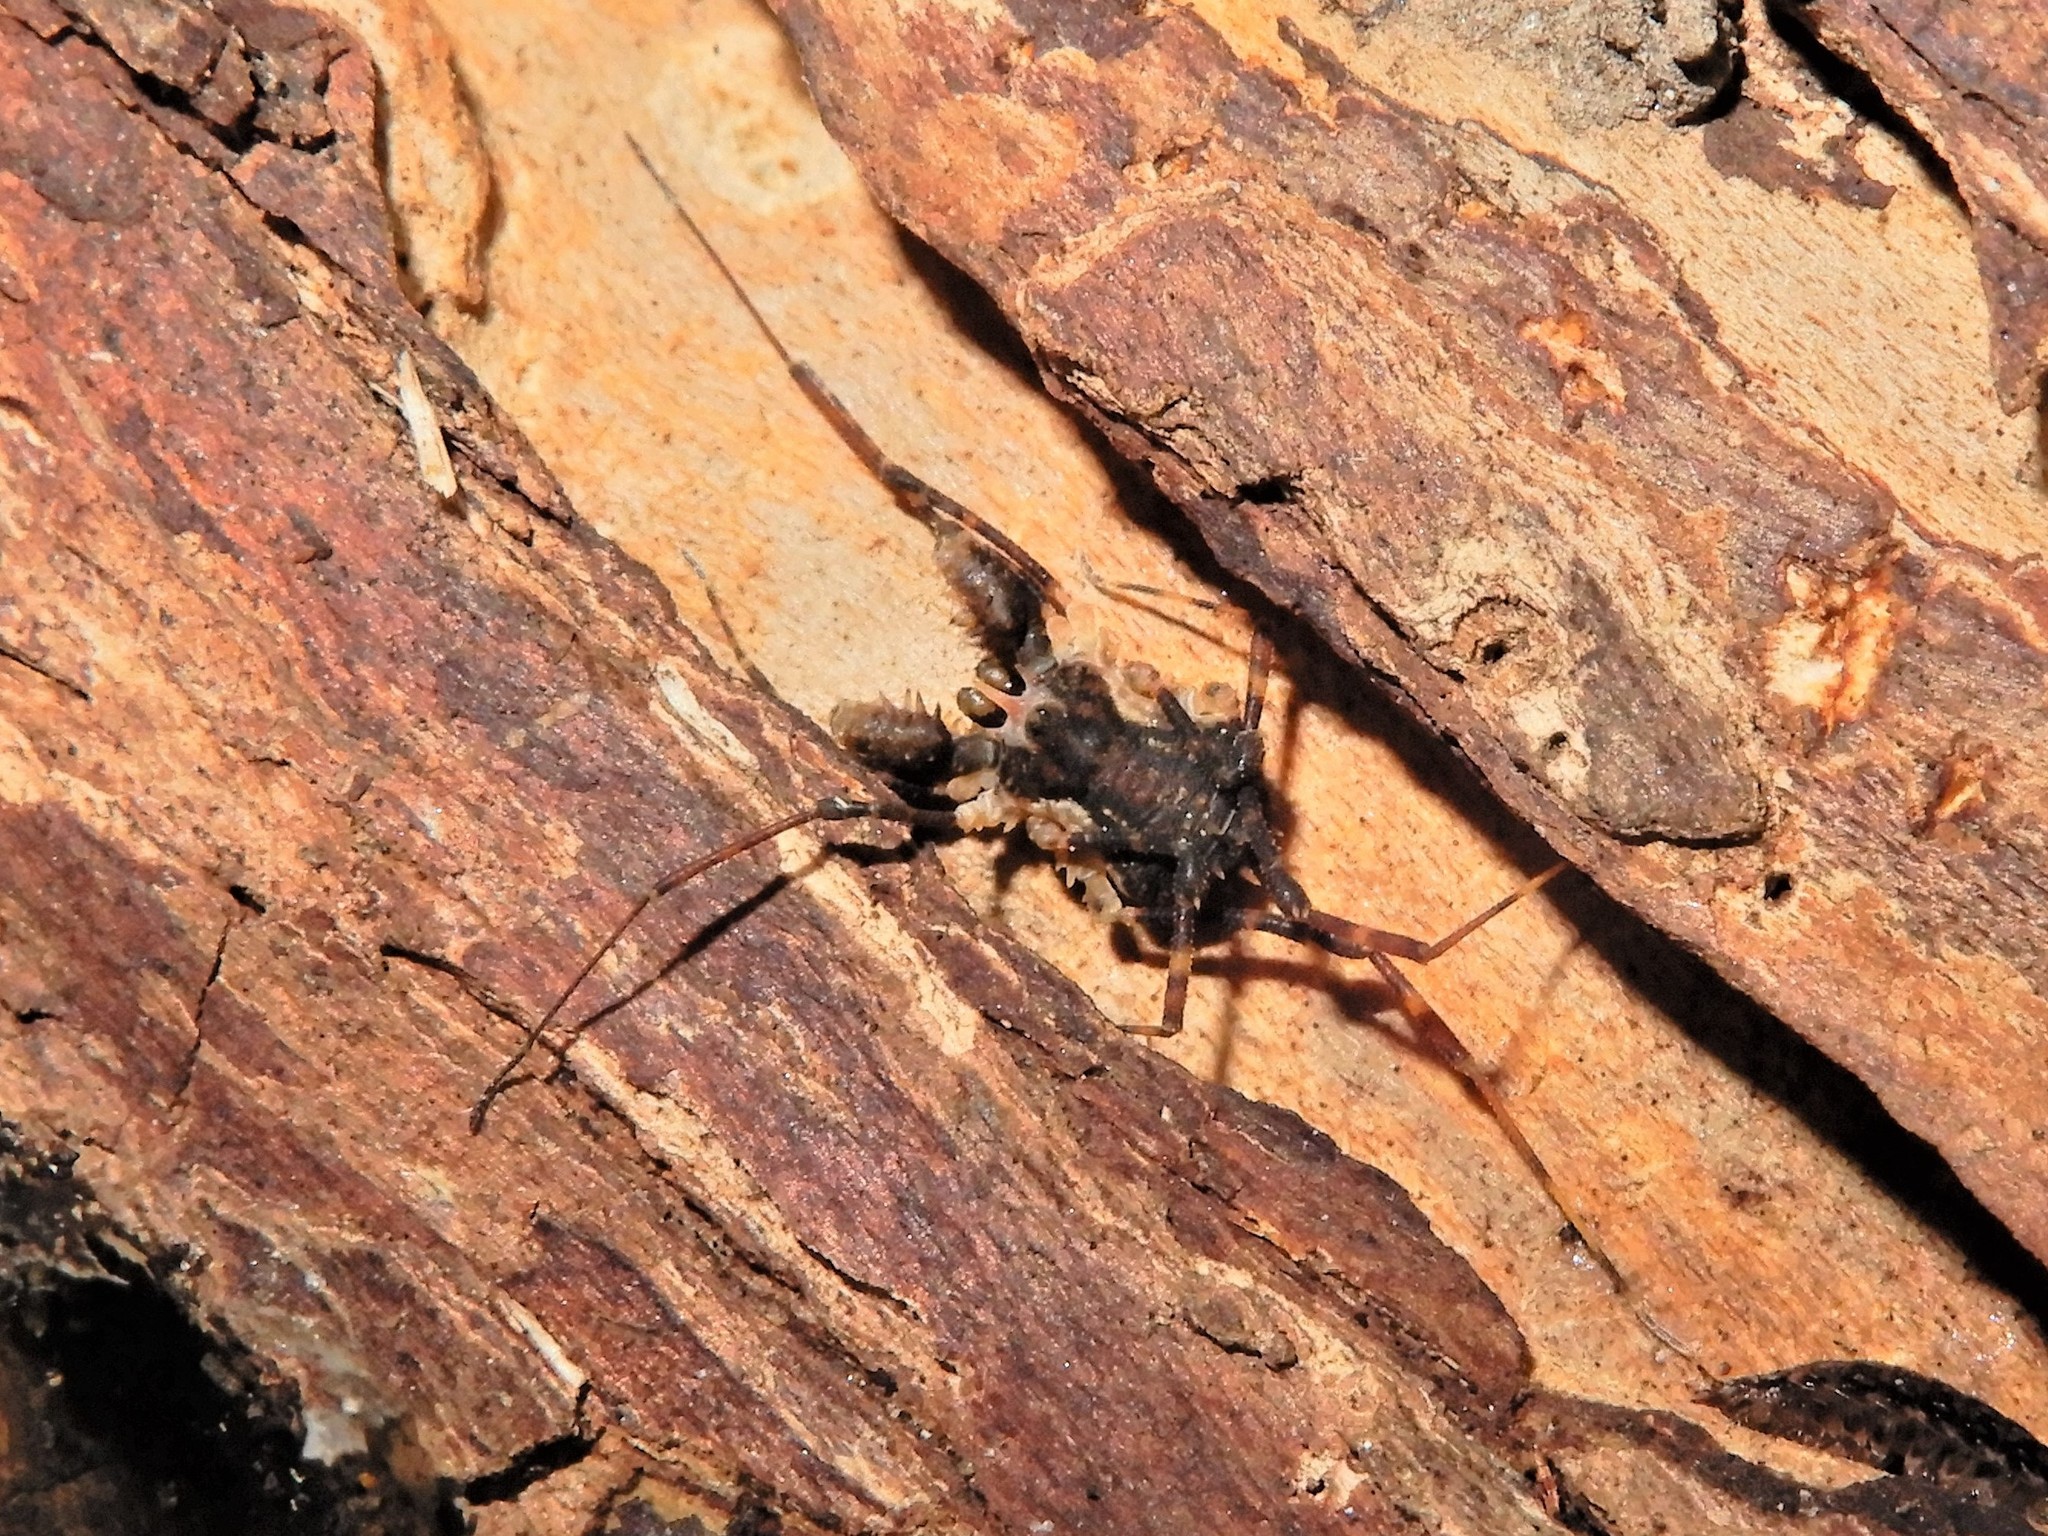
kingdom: Animalia
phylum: Arthropoda
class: Arachnida
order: Opiliones
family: Triaenonychidae
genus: Algidia
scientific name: Algidia chiltoni
